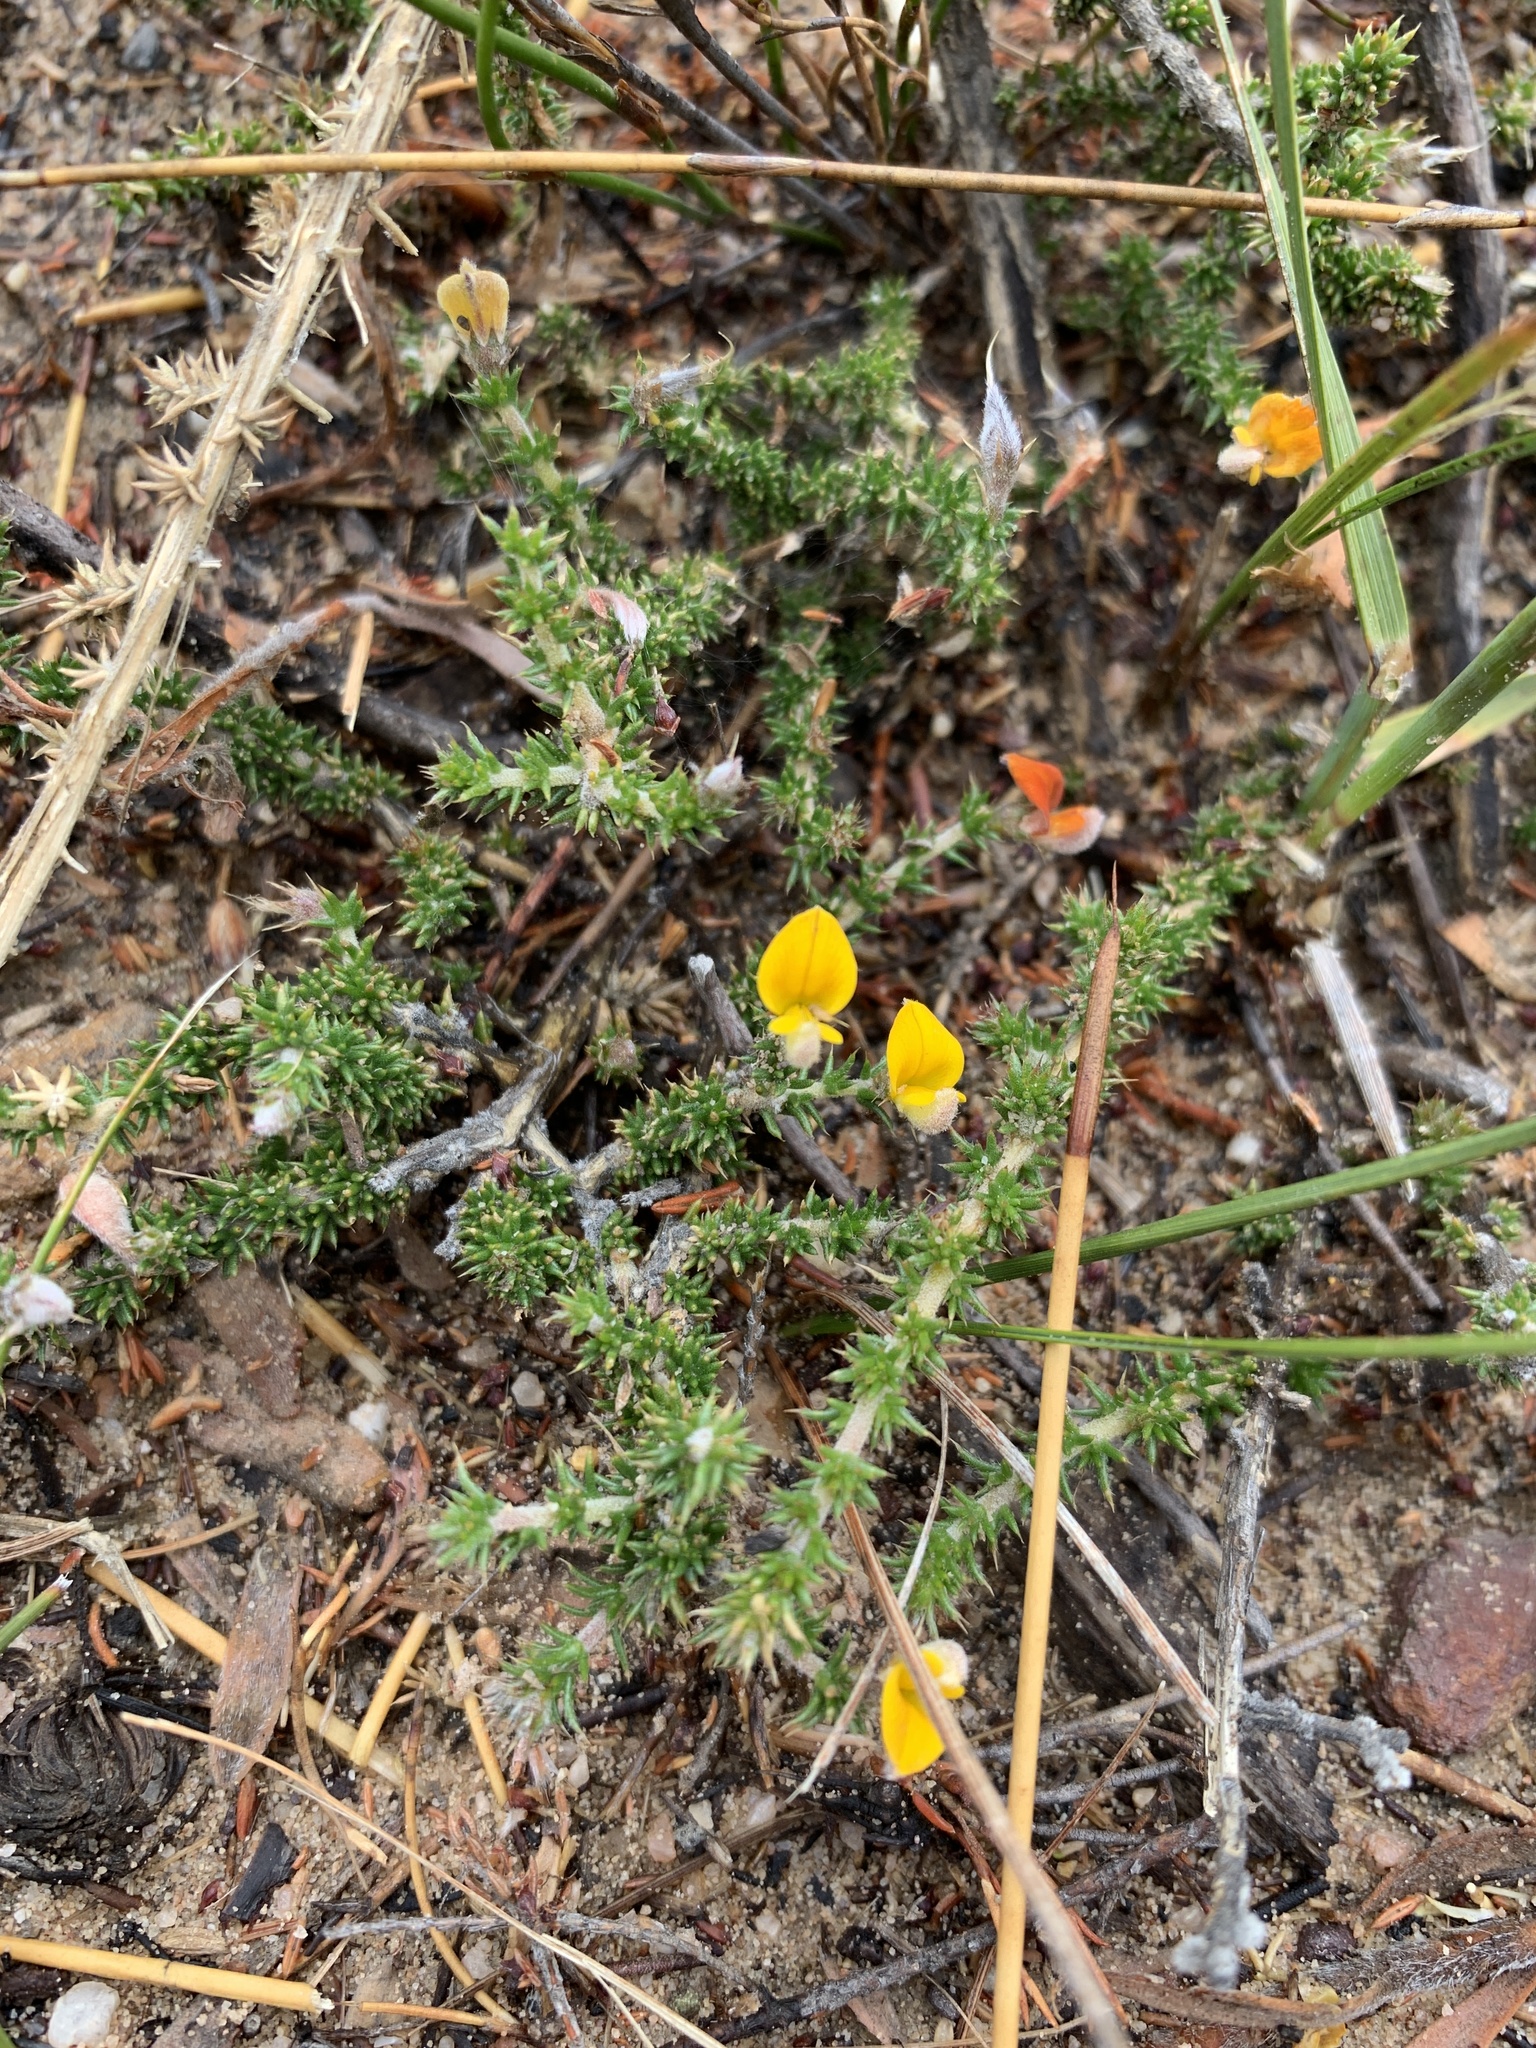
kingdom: Plantae
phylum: Tracheophyta
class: Magnoliopsida
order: Fabales
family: Fabaceae
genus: Aspalathus
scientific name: Aspalathus aristifolia
